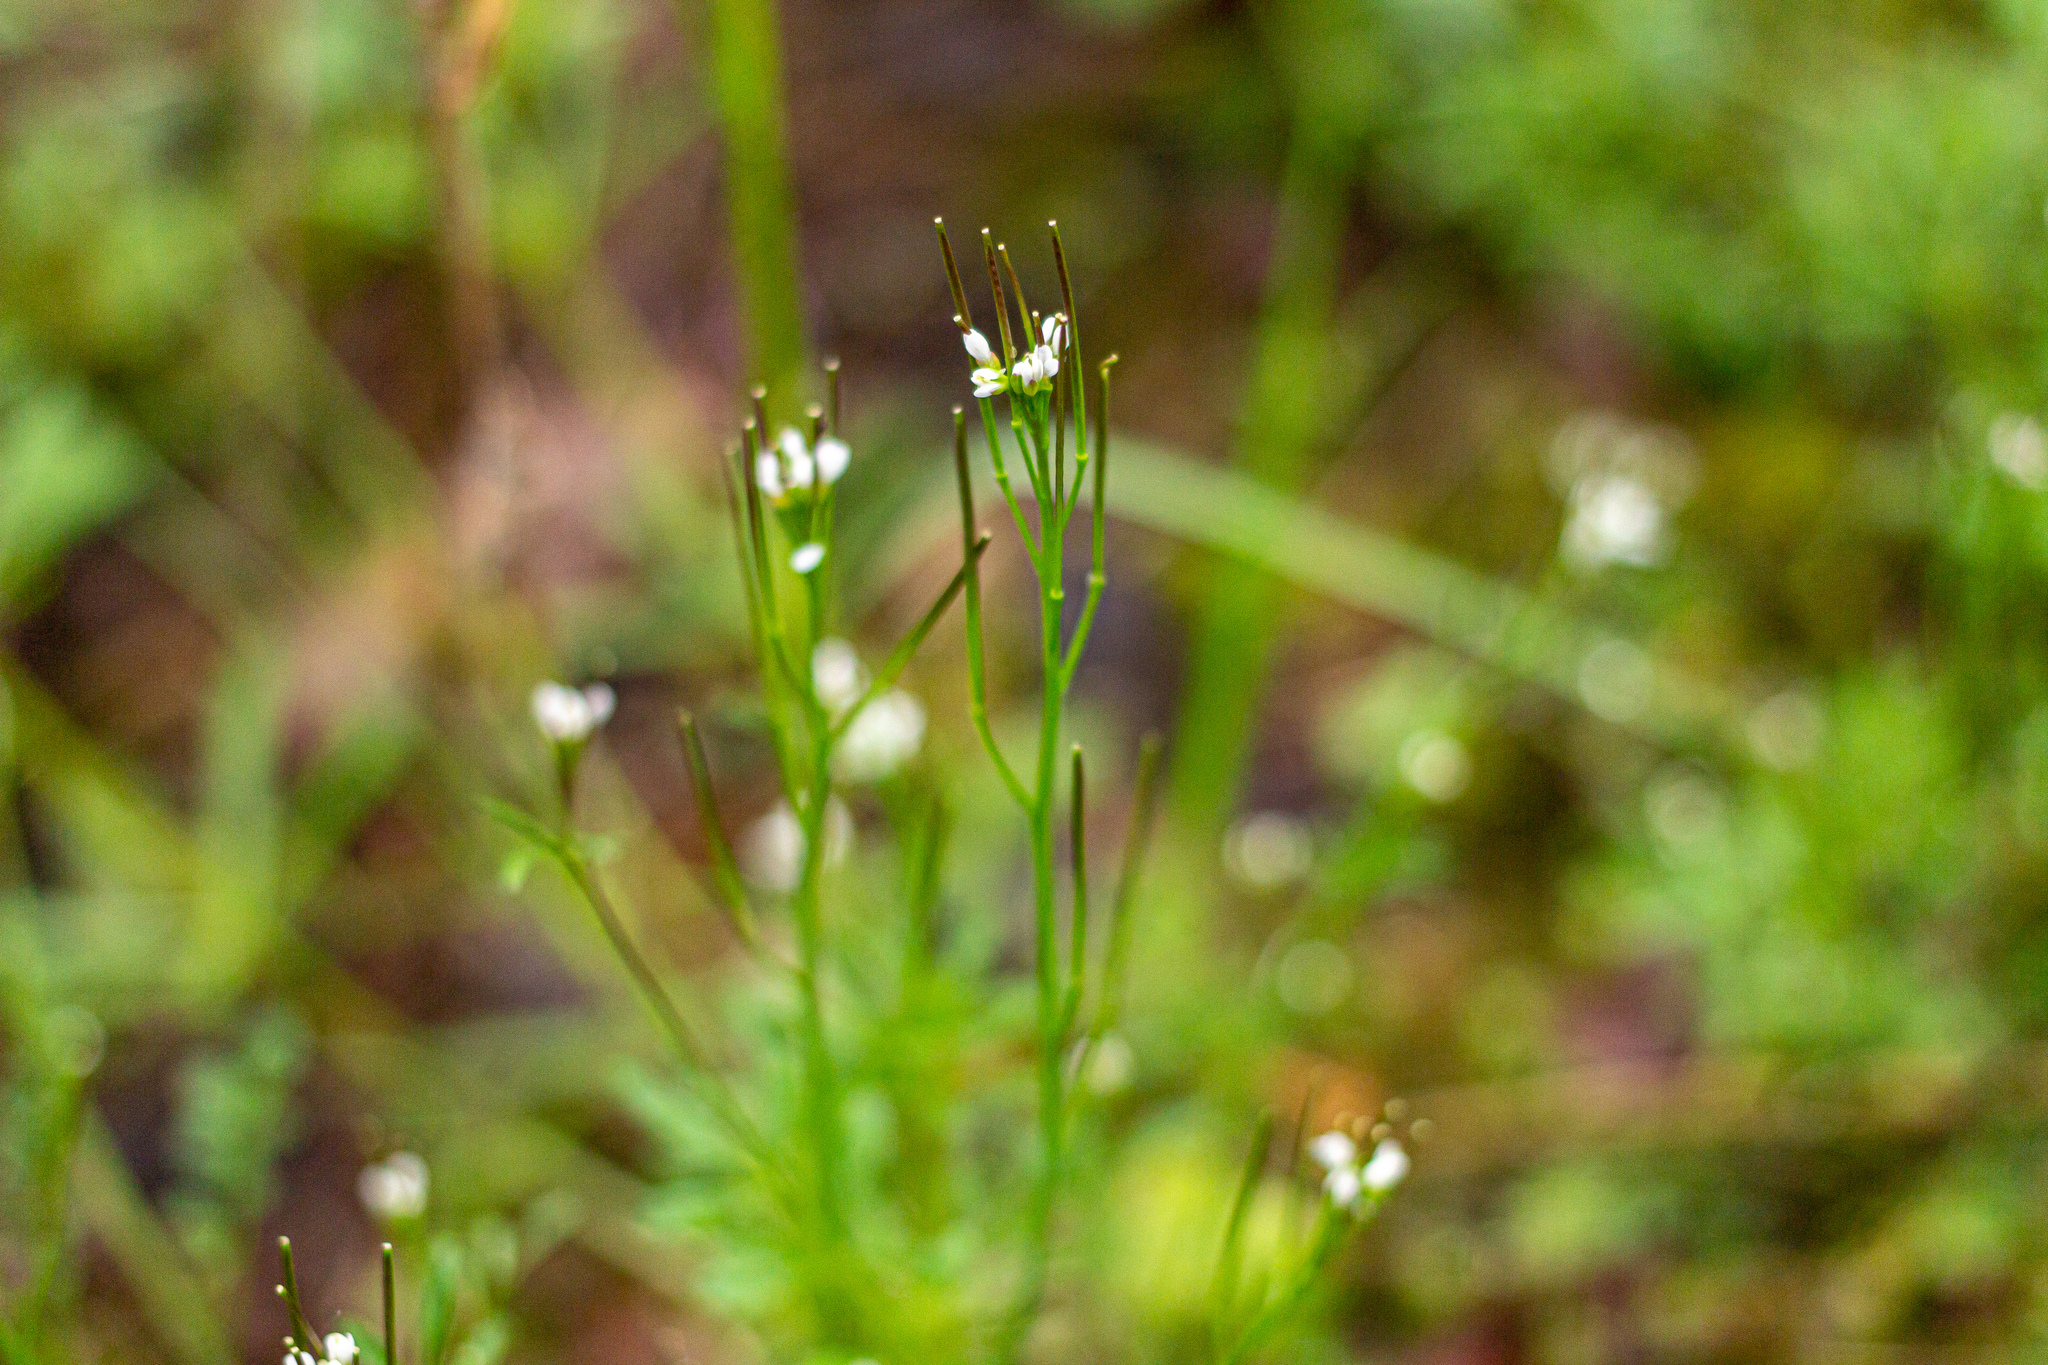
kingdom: Plantae
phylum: Tracheophyta
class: Magnoliopsida
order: Brassicales
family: Brassicaceae
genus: Cardamine
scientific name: Cardamine hirsuta
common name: Hairy bittercress
